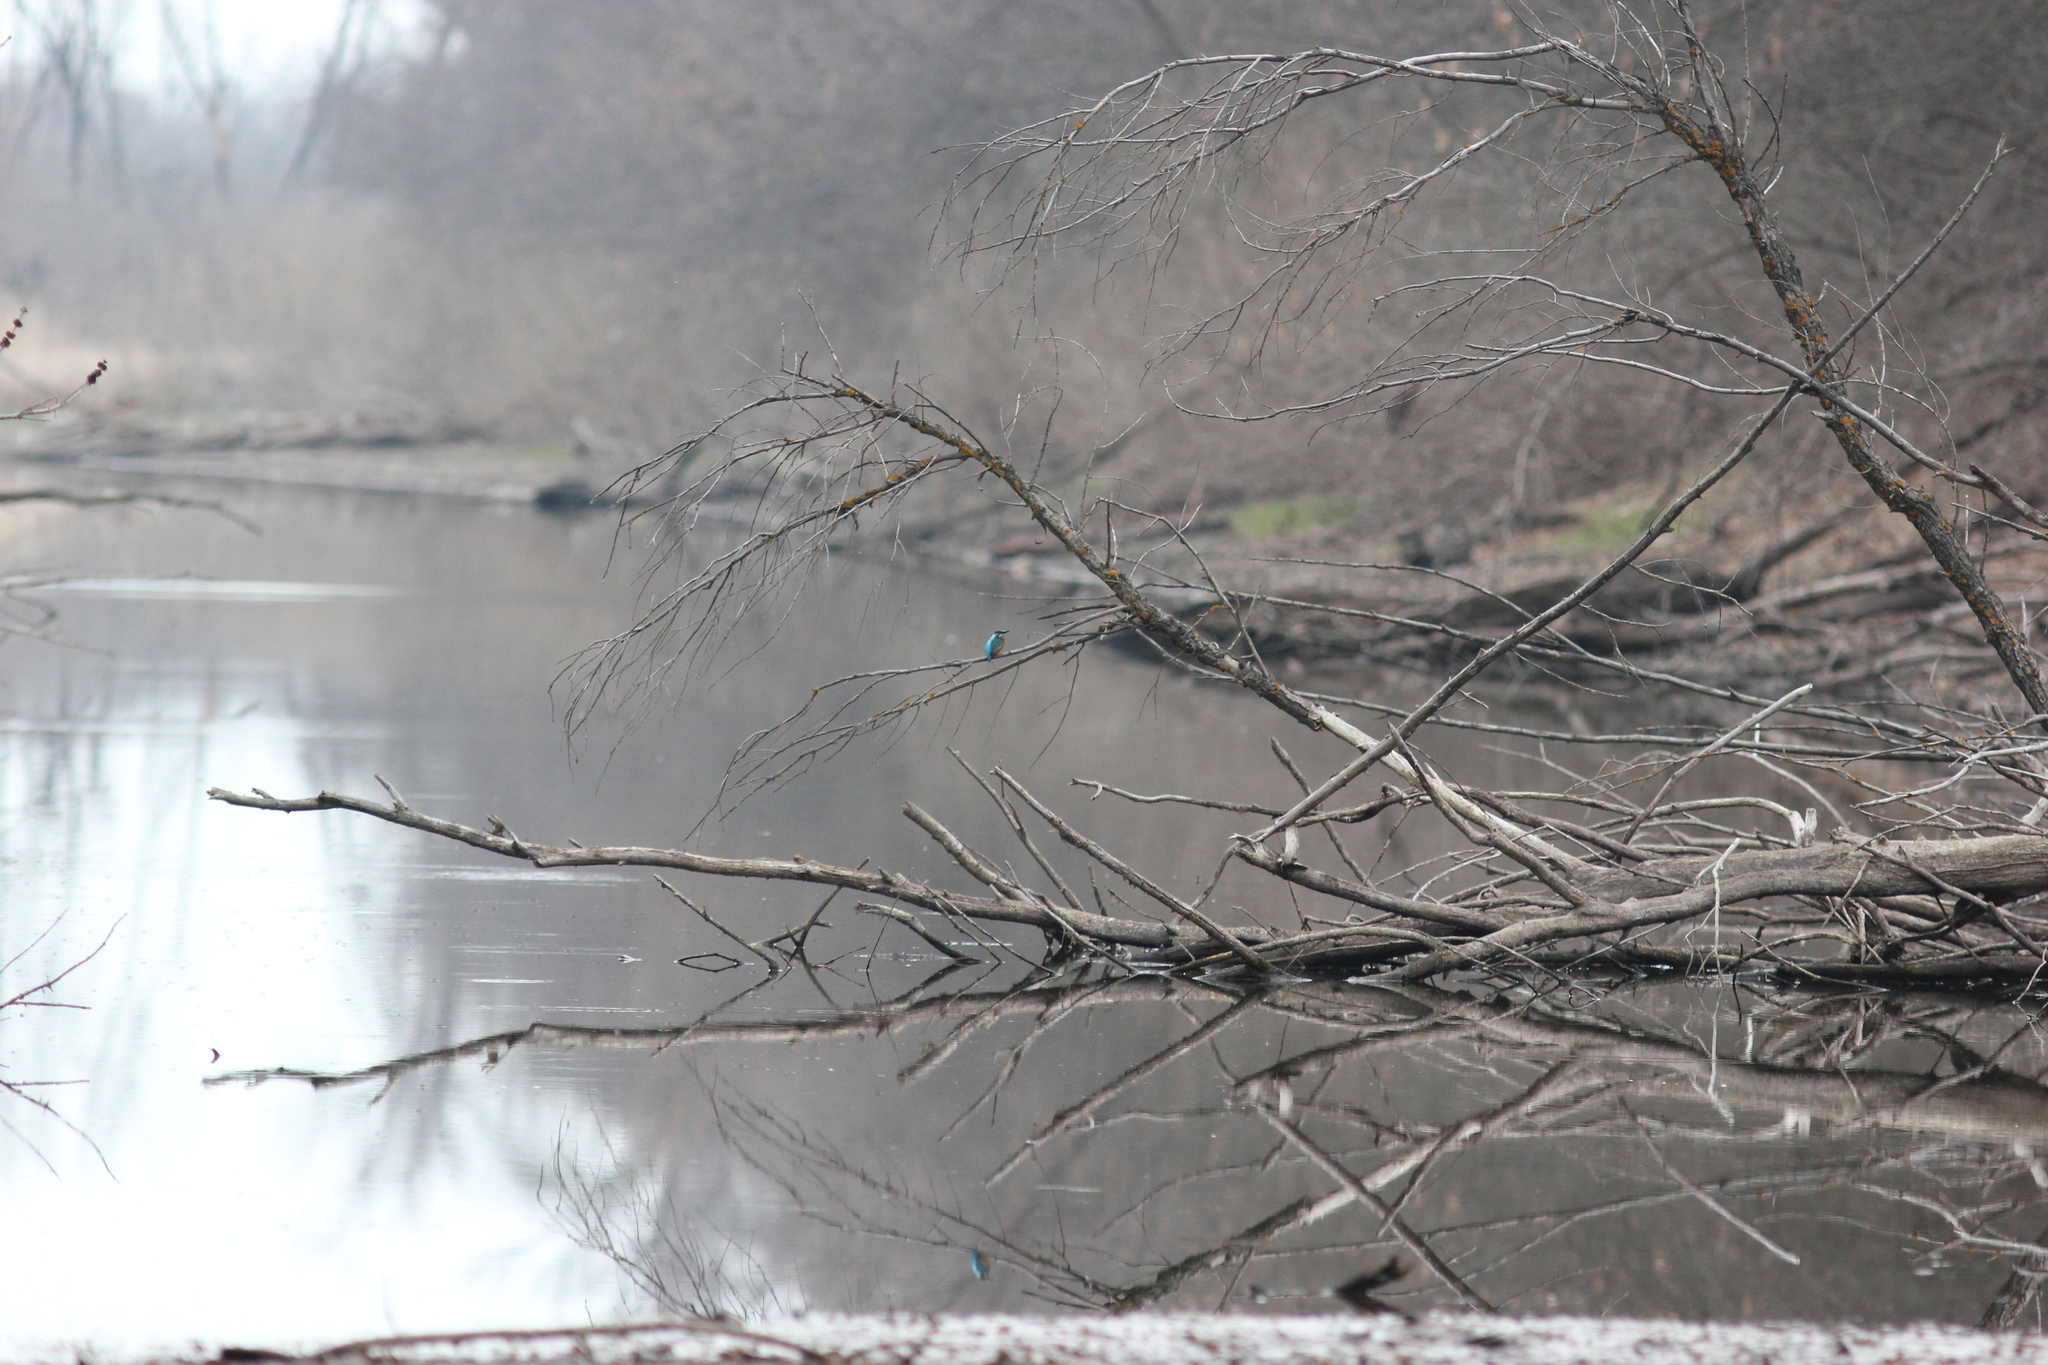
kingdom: Animalia
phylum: Chordata
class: Aves
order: Coraciiformes
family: Alcedinidae
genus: Alcedo
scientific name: Alcedo atthis
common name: Common kingfisher
